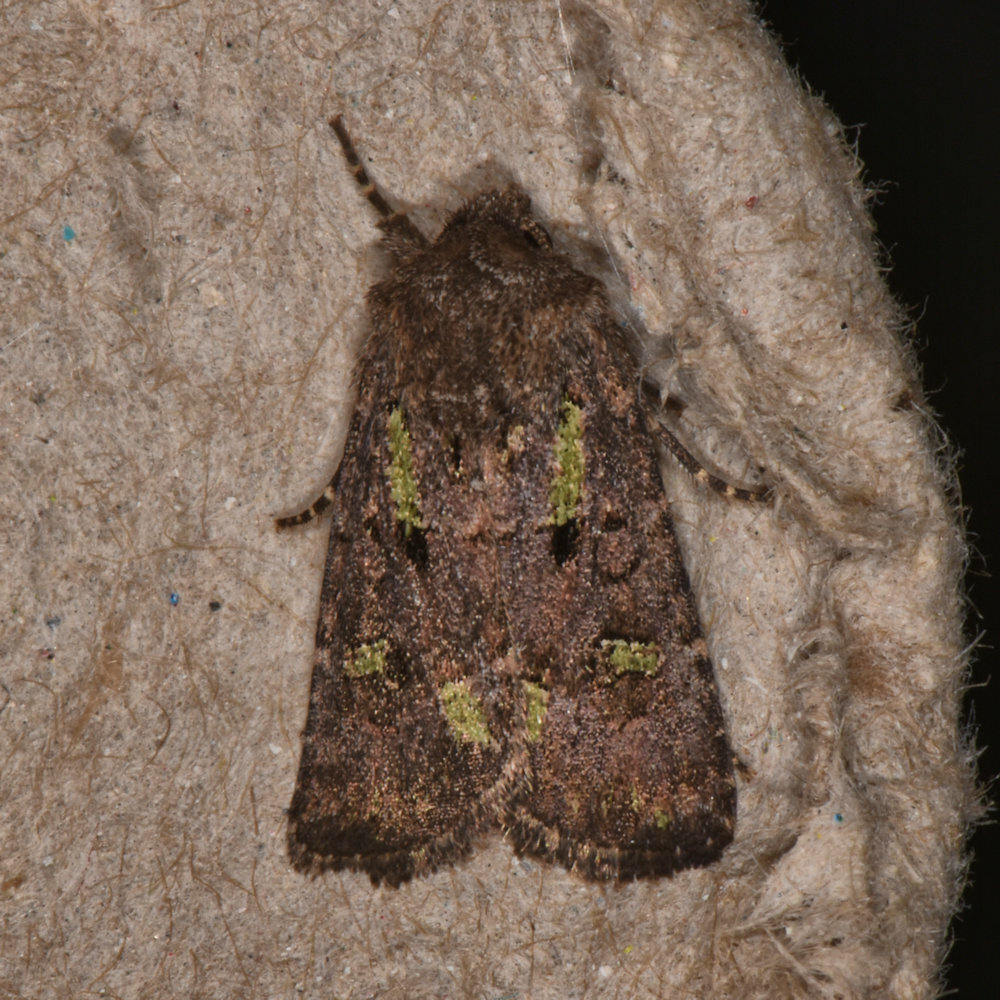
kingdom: Animalia
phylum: Arthropoda
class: Insecta
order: Lepidoptera
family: Noctuidae
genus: Lacinipolia
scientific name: Lacinipolia renigera
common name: Kidney-spotted minor
